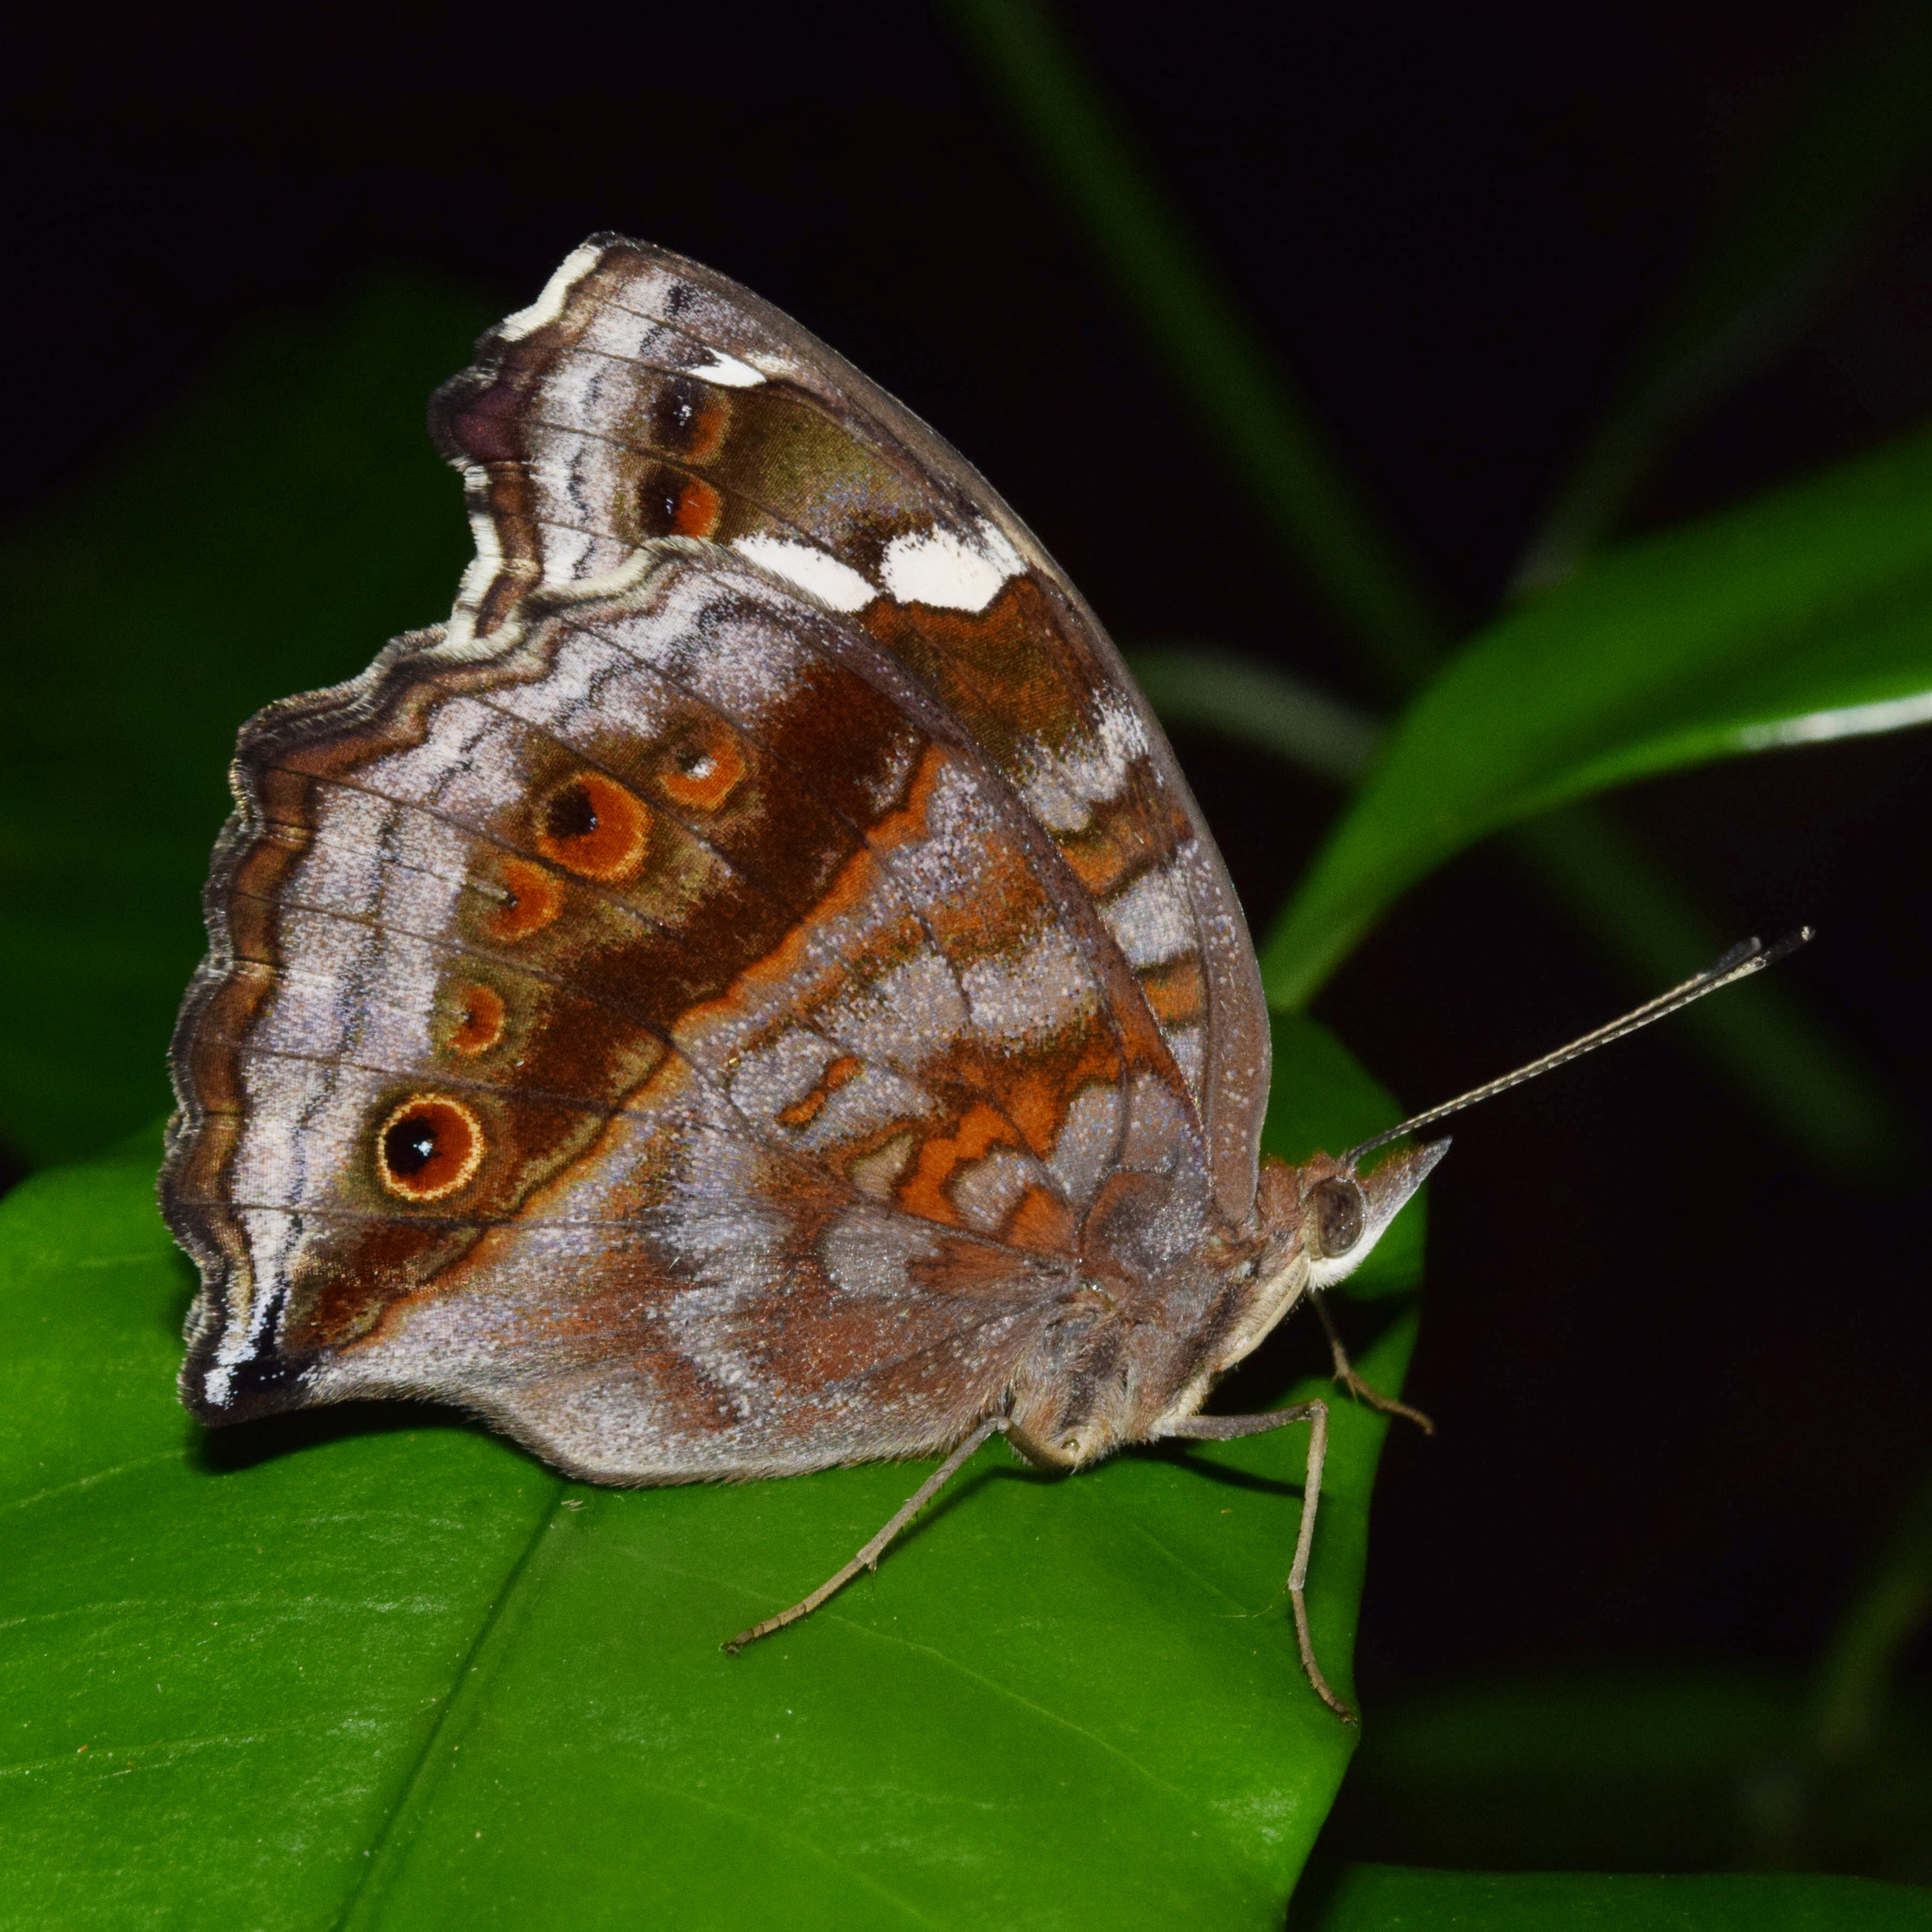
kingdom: Animalia
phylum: Arthropoda
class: Insecta
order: Lepidoptera
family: Nymphalidae
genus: Junonia
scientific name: Junonia natalica
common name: Brown pansy
